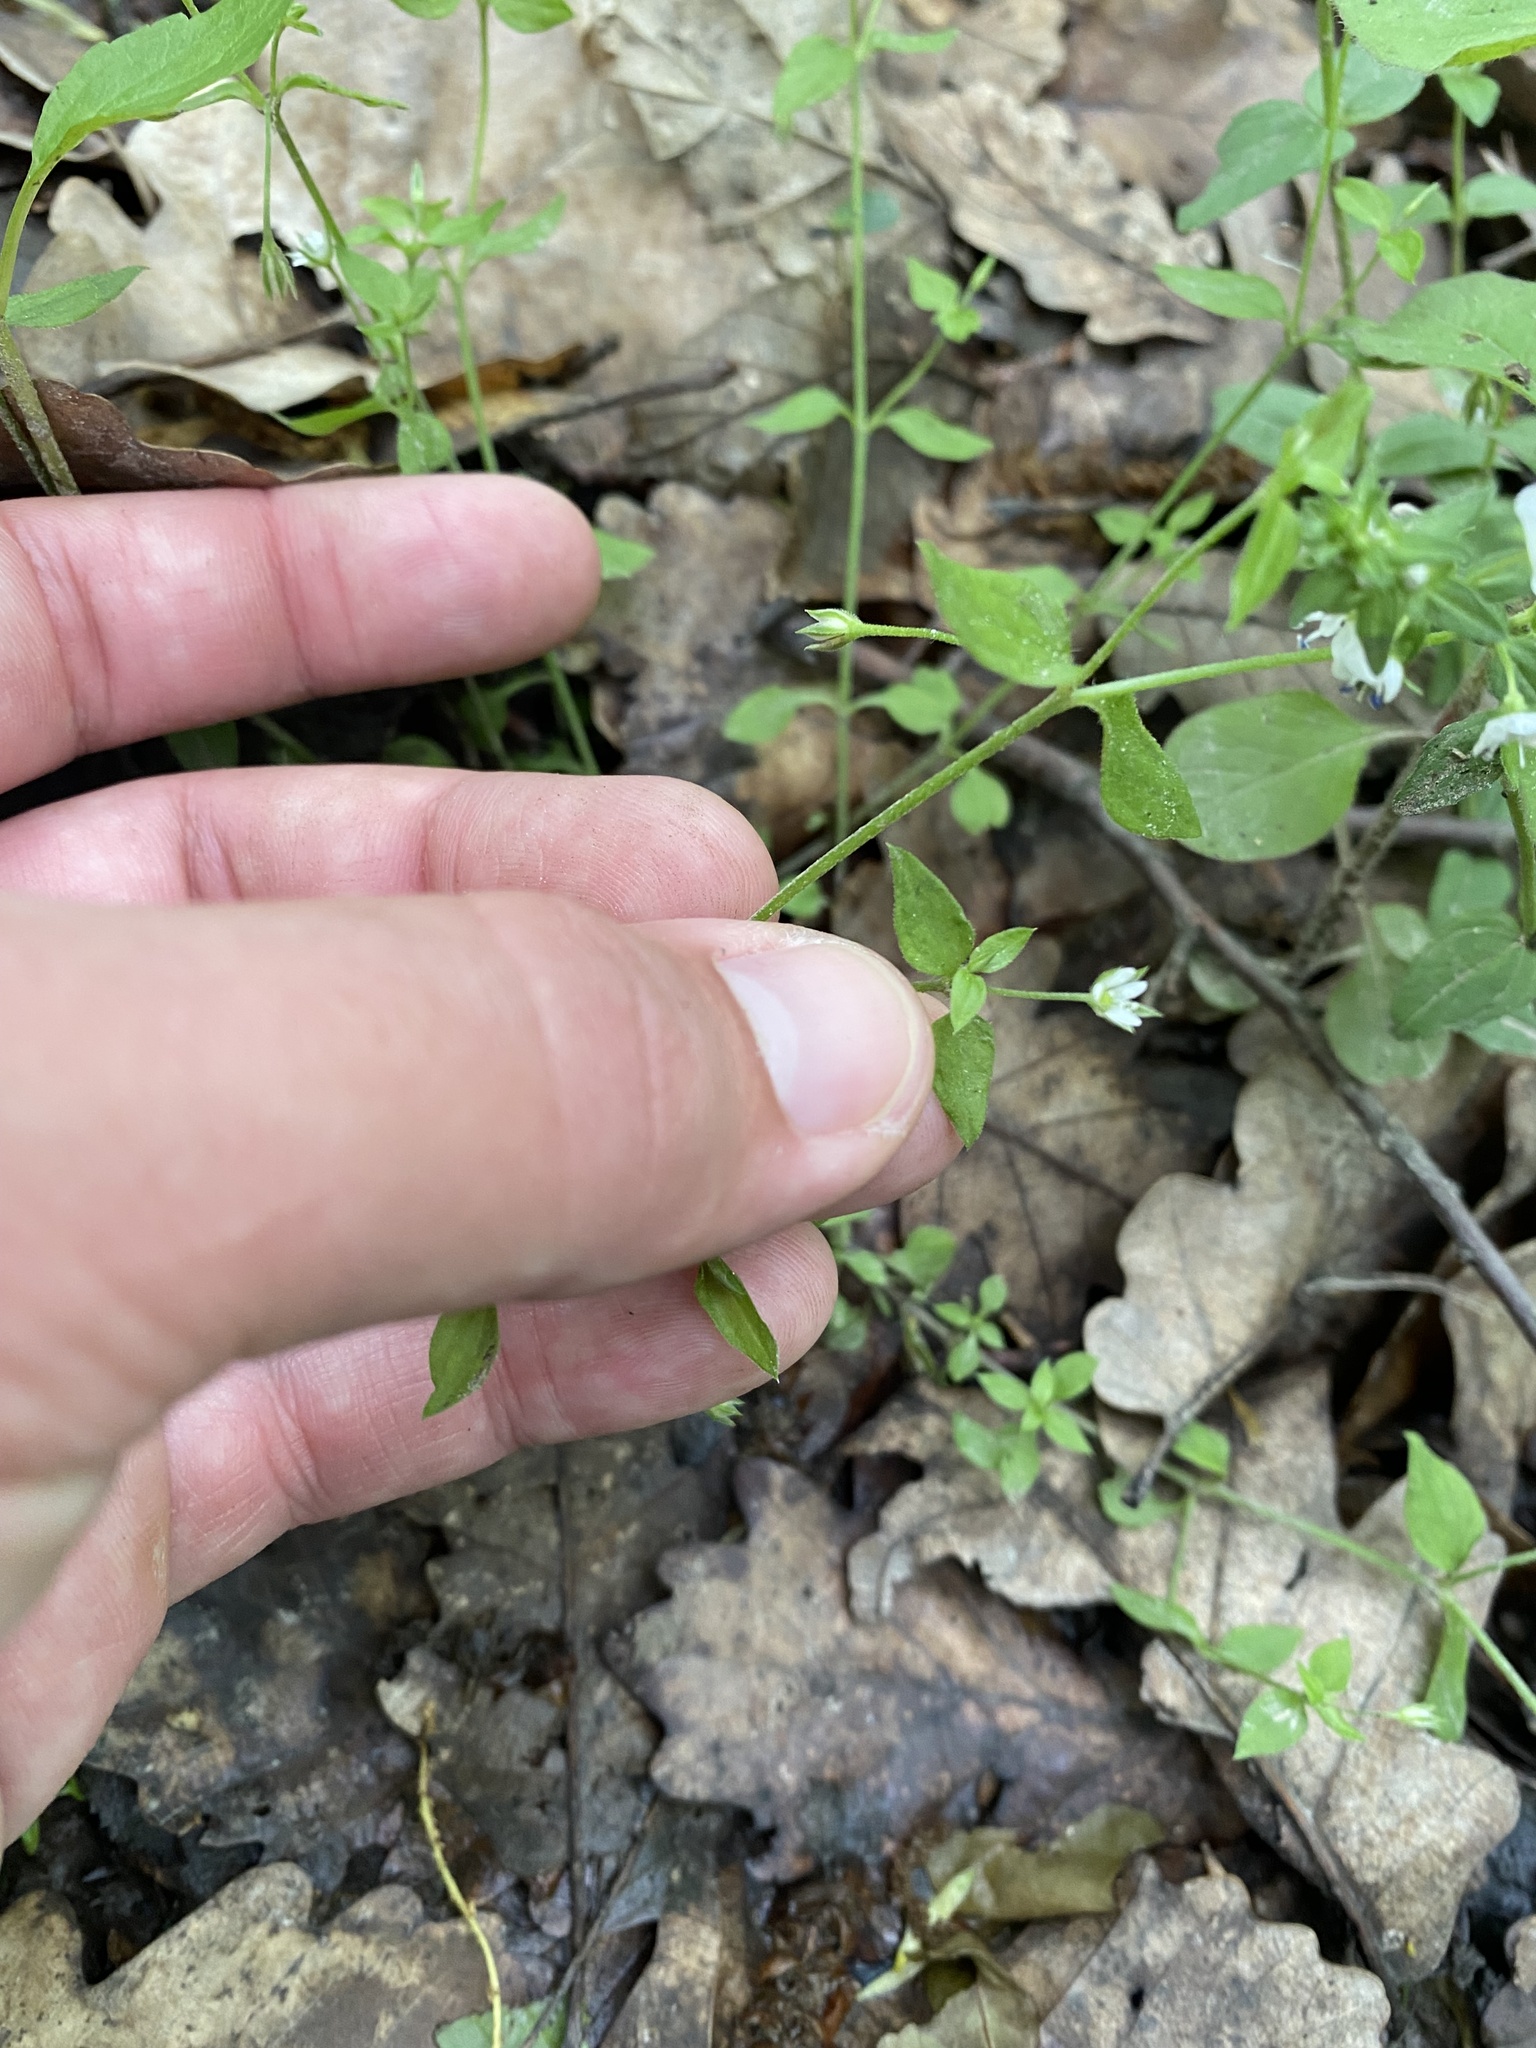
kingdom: Plantae
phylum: Tracheophyta
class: Magnoliopsida
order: Caryophyllales
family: Caryophyllaceae
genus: Moehringia
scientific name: Moehringia trinervia
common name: Three-nerved sandwort
